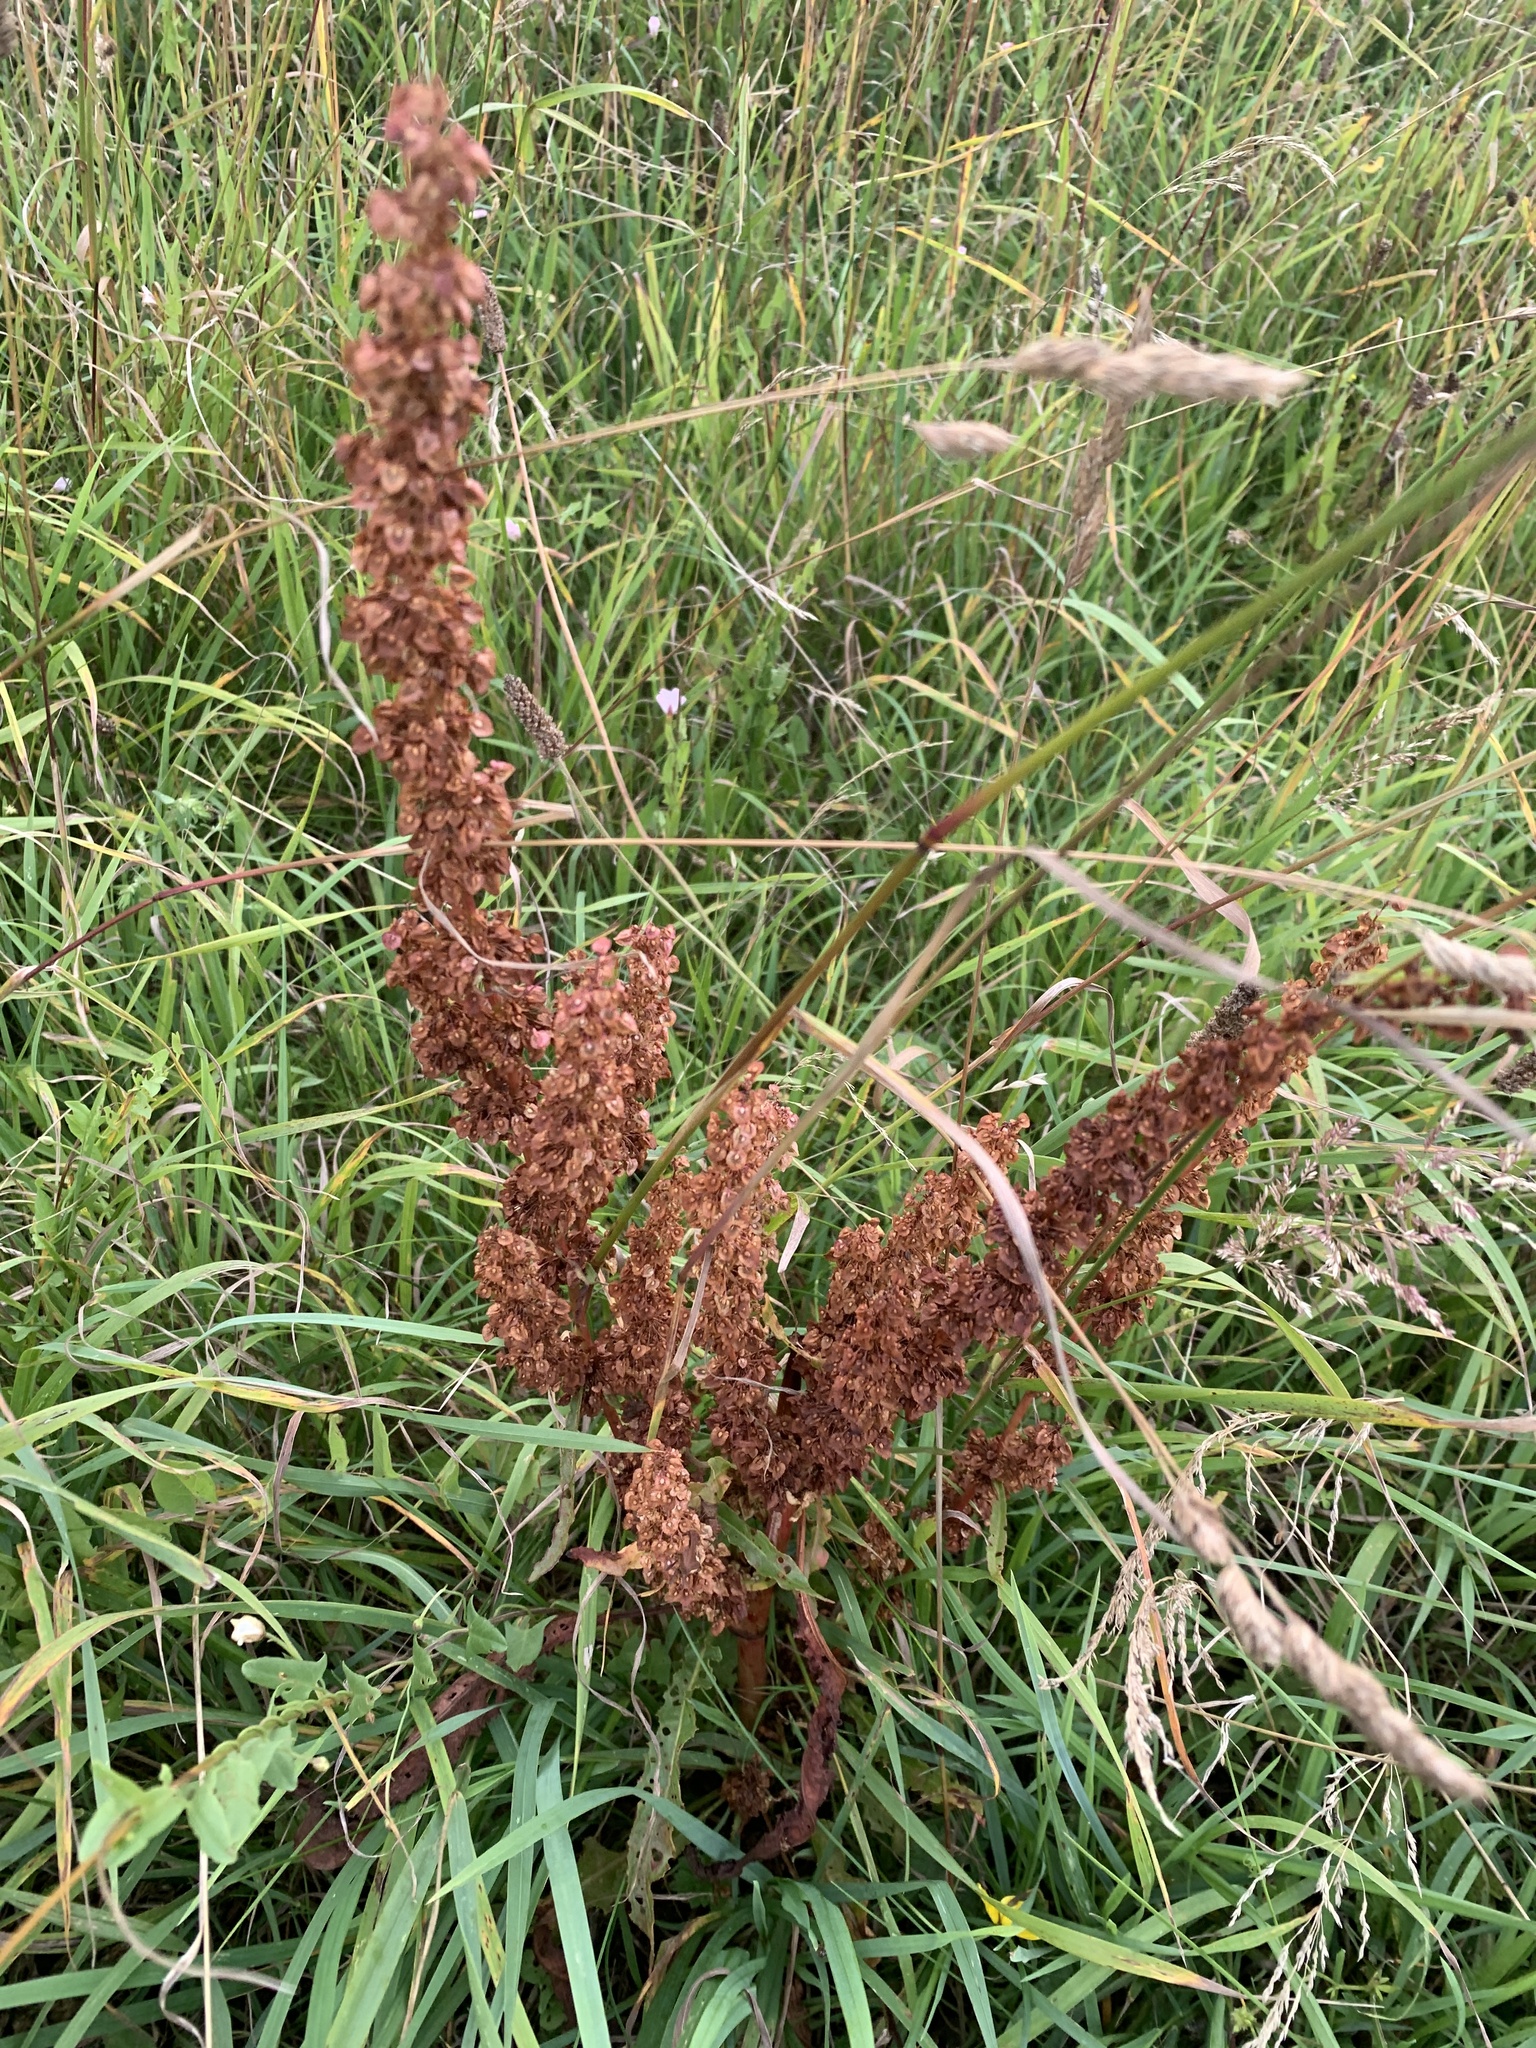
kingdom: Plantae
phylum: Tracheophyta
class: Magnoliopsida
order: Caryophyllales
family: Polygonaceae
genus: Rumex
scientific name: Rumex crispus
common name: Curled dock
